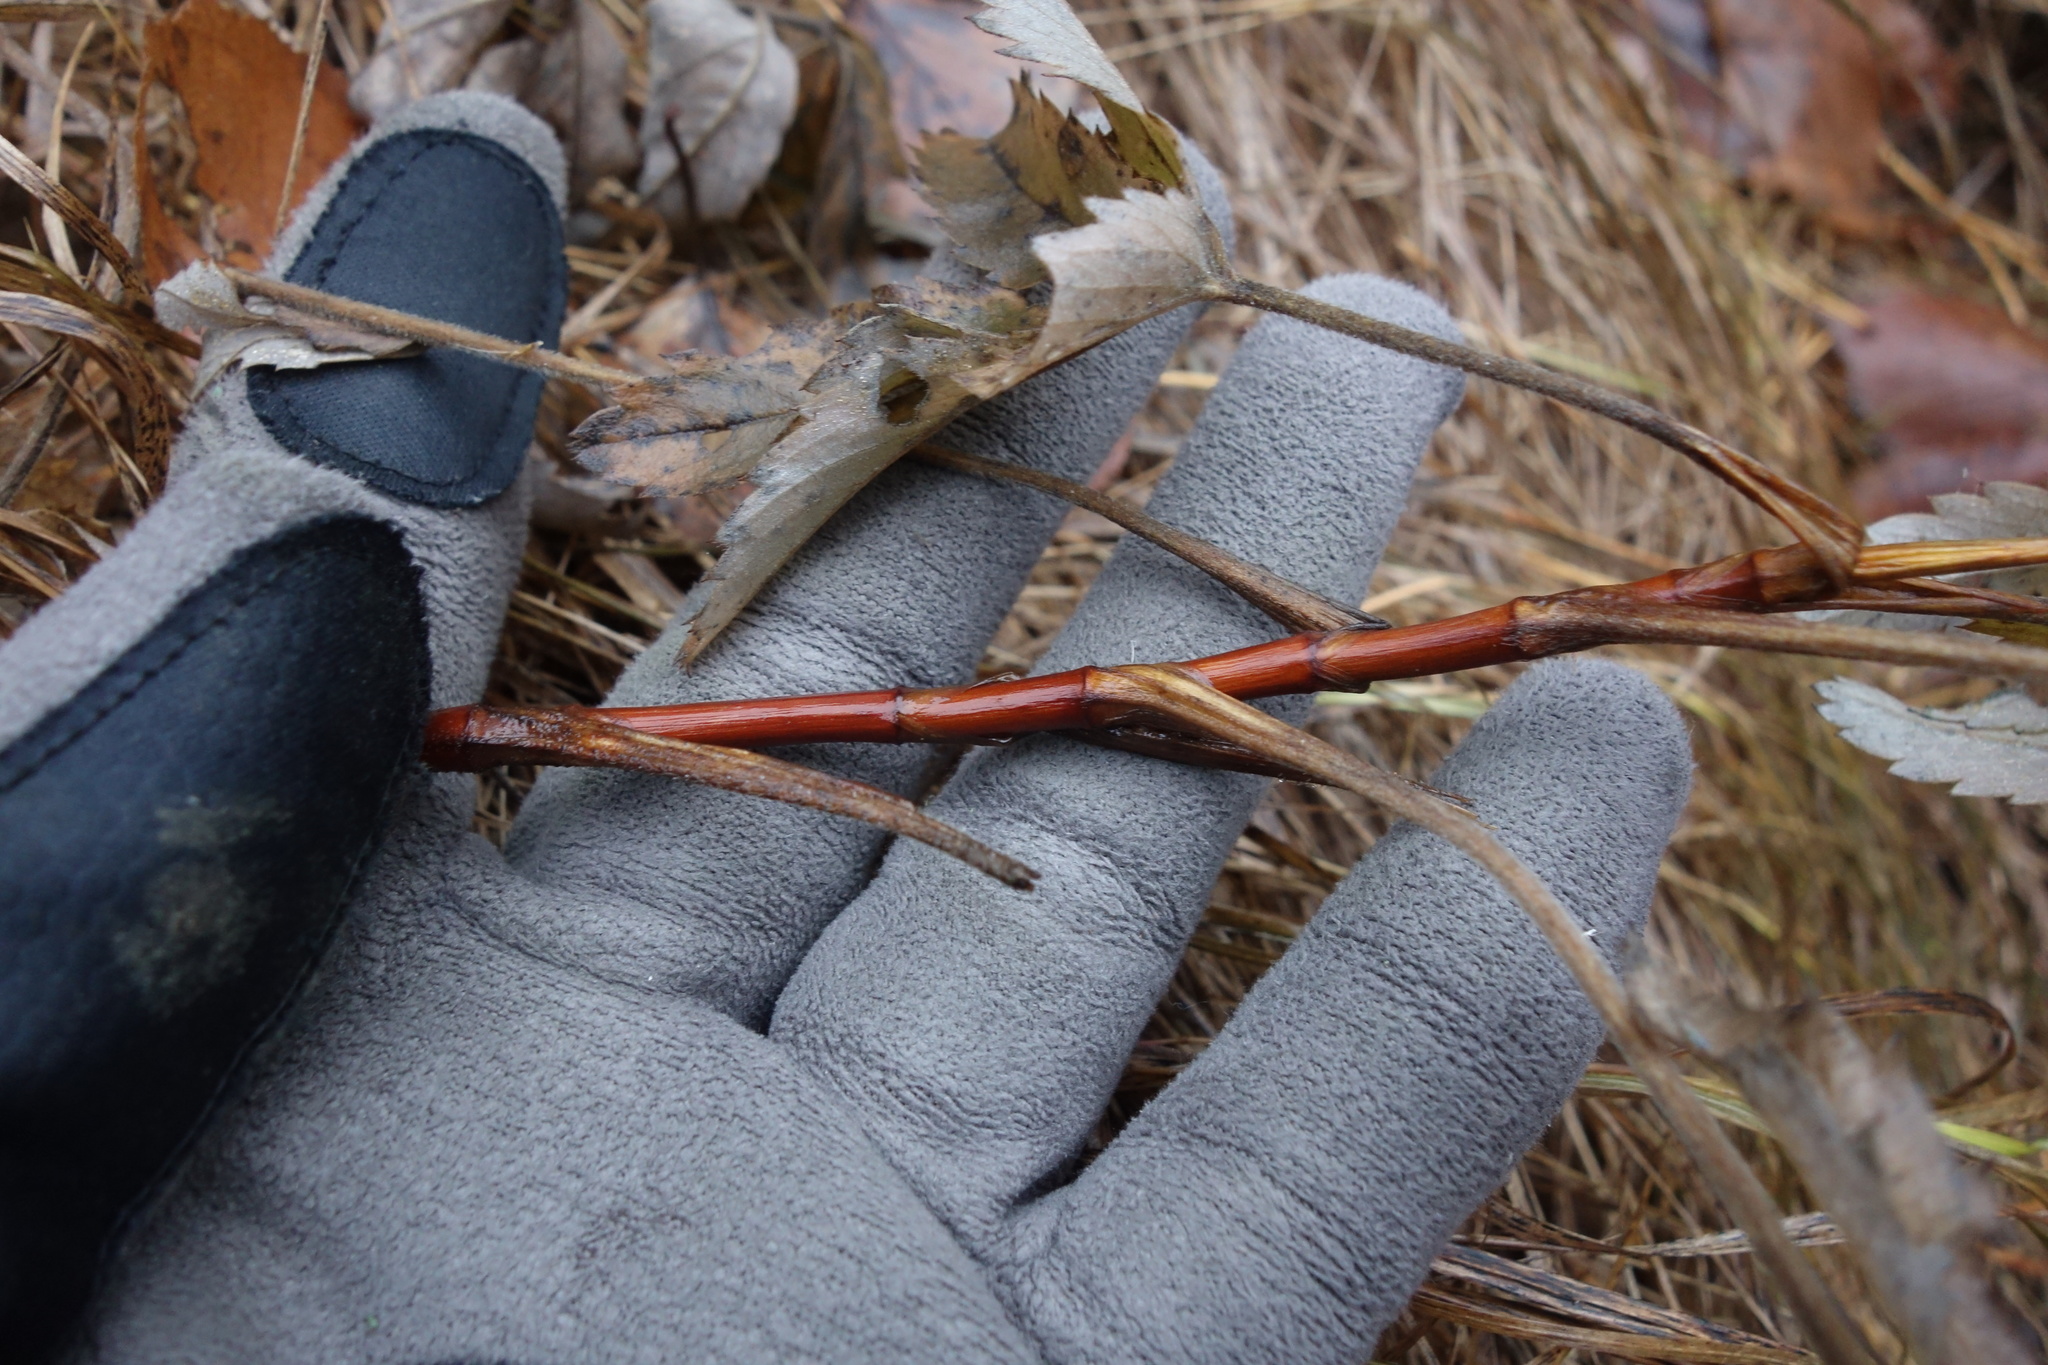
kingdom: Plantae
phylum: Tracheophyta
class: Magnoliopsida
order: Rosales
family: Rosaceae
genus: Comarum
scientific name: Comarum palustre
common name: Marsh cinquefoil
